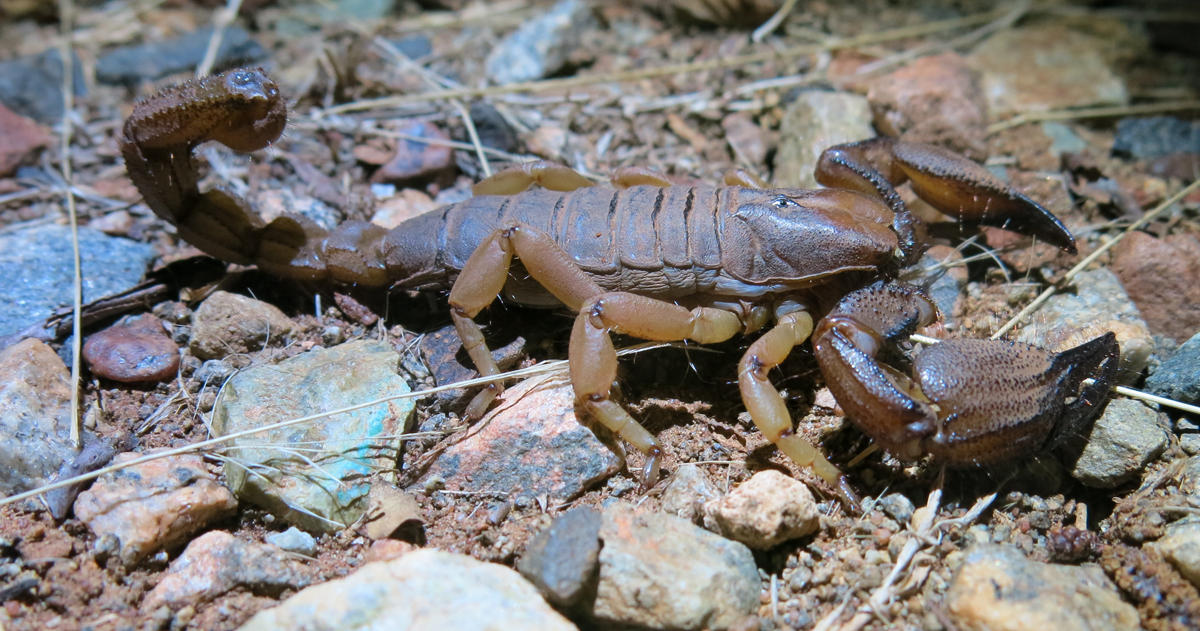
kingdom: Animalia
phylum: Arthropoda
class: Arachnida
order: Scorpiones
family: Scorpionidae
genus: Opistophthalmus
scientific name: Opistophthalmus glabrifrons
